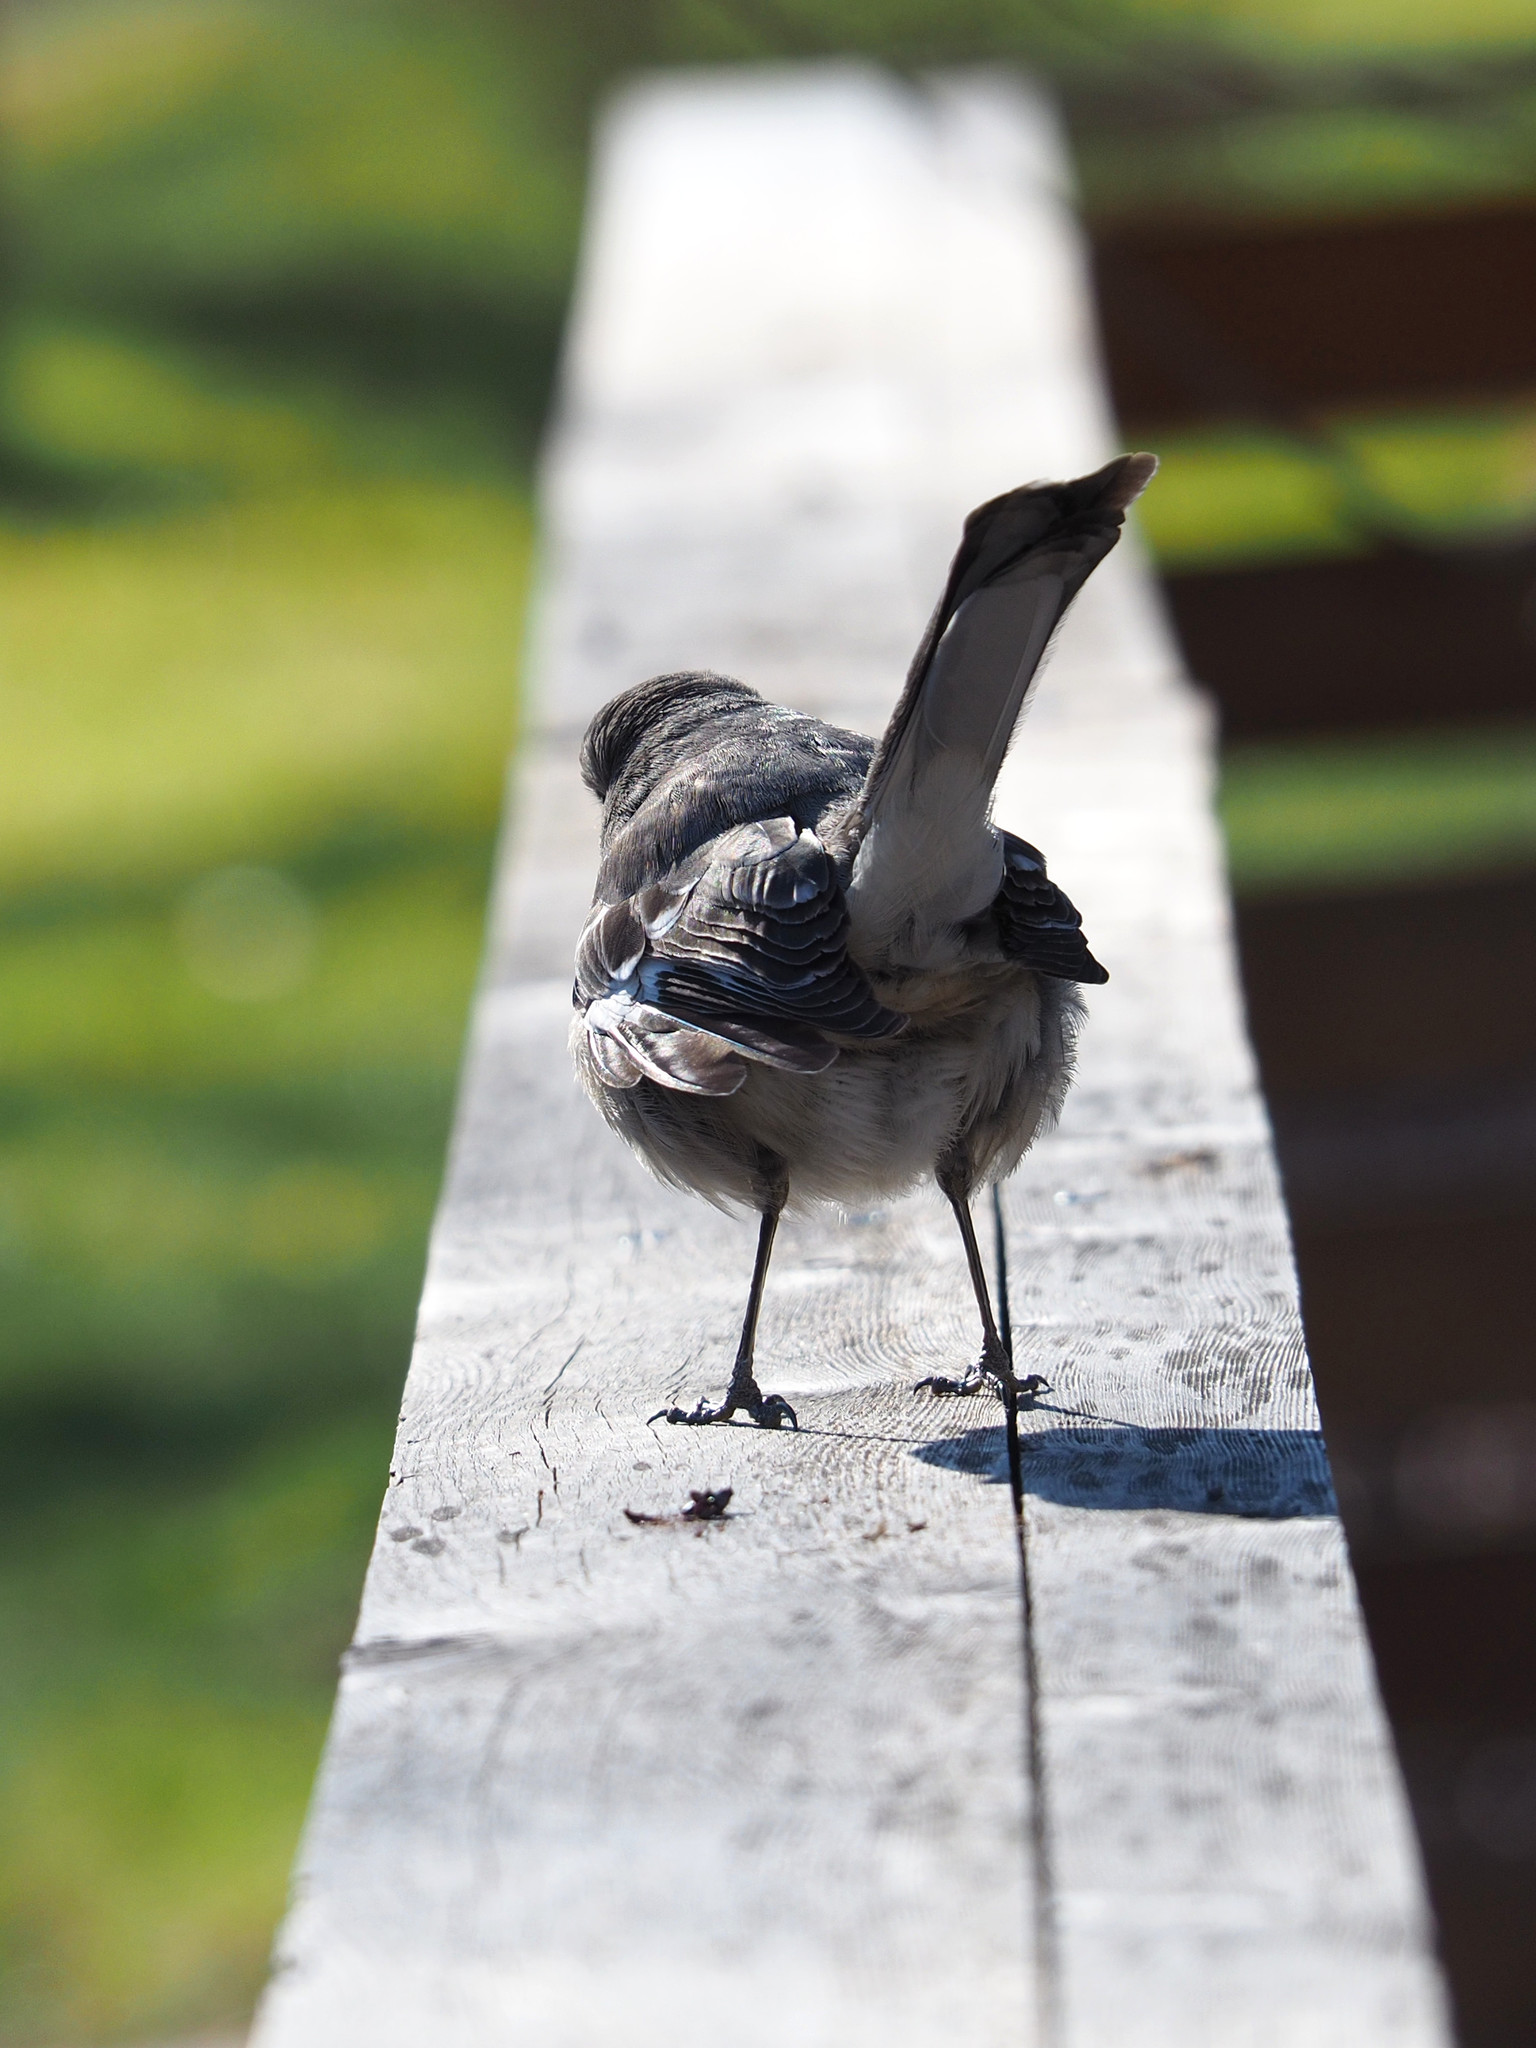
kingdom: Animalia
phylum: Chordata
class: Aves
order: Passeriformes
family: Mimidae
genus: Mimus
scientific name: Mimus polyglottos
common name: Northern mockingbird
